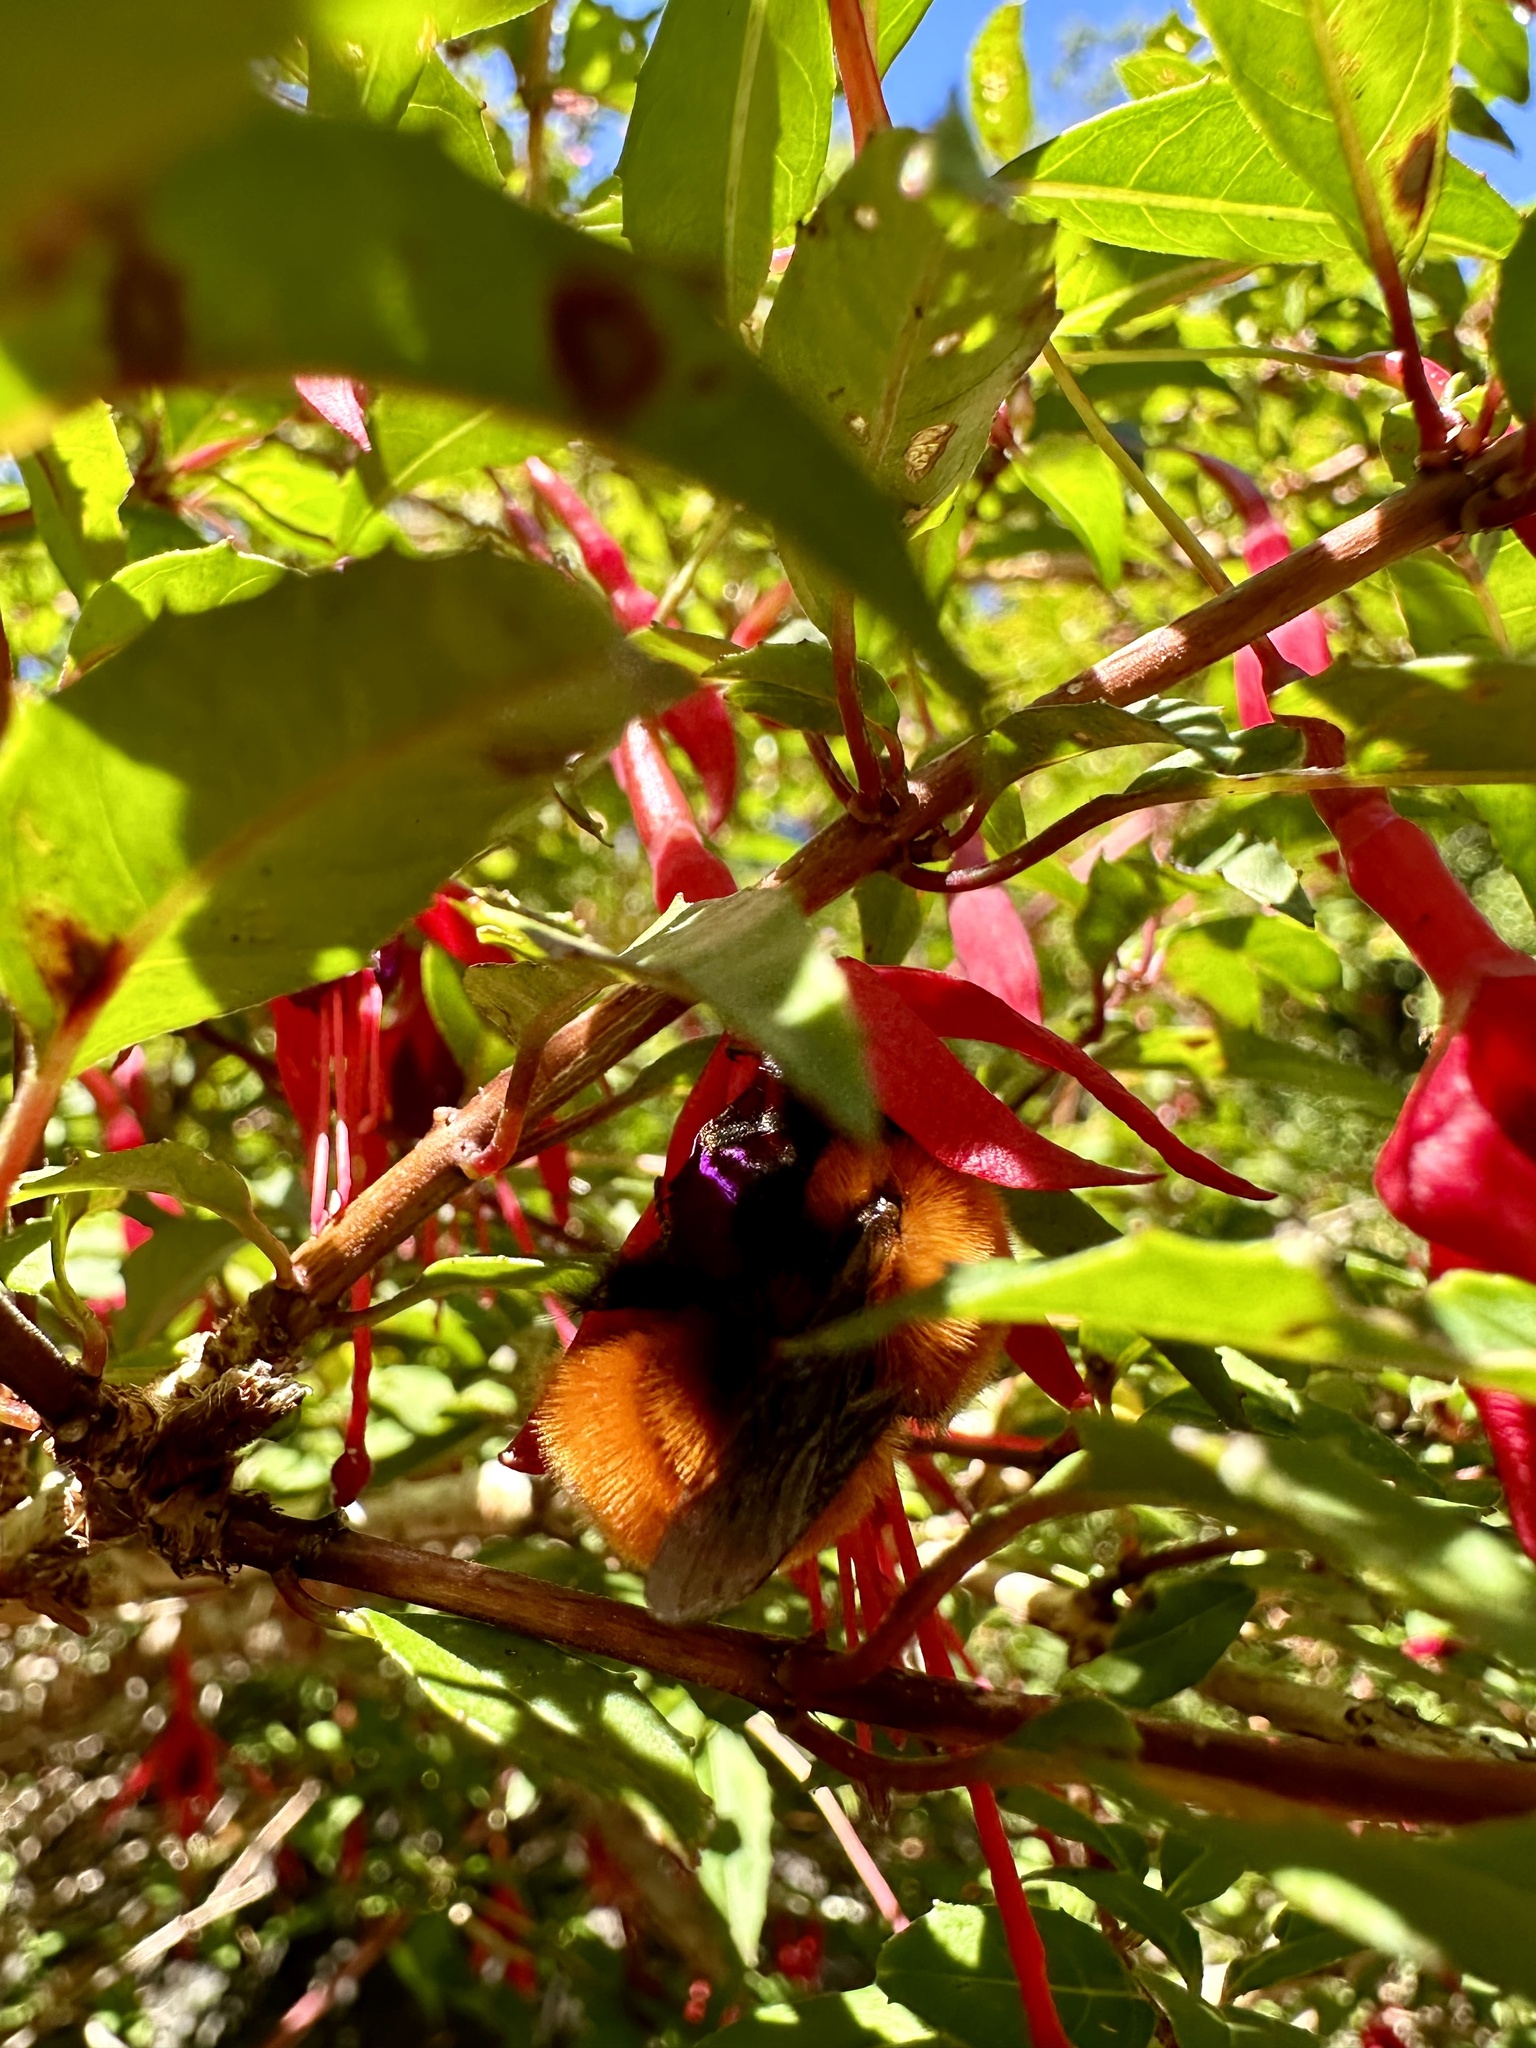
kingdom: Animalia
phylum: Arthropoda
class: Insecta
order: Hymenoptera
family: Apidae
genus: Bombus
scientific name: Bombus dahlbomii
